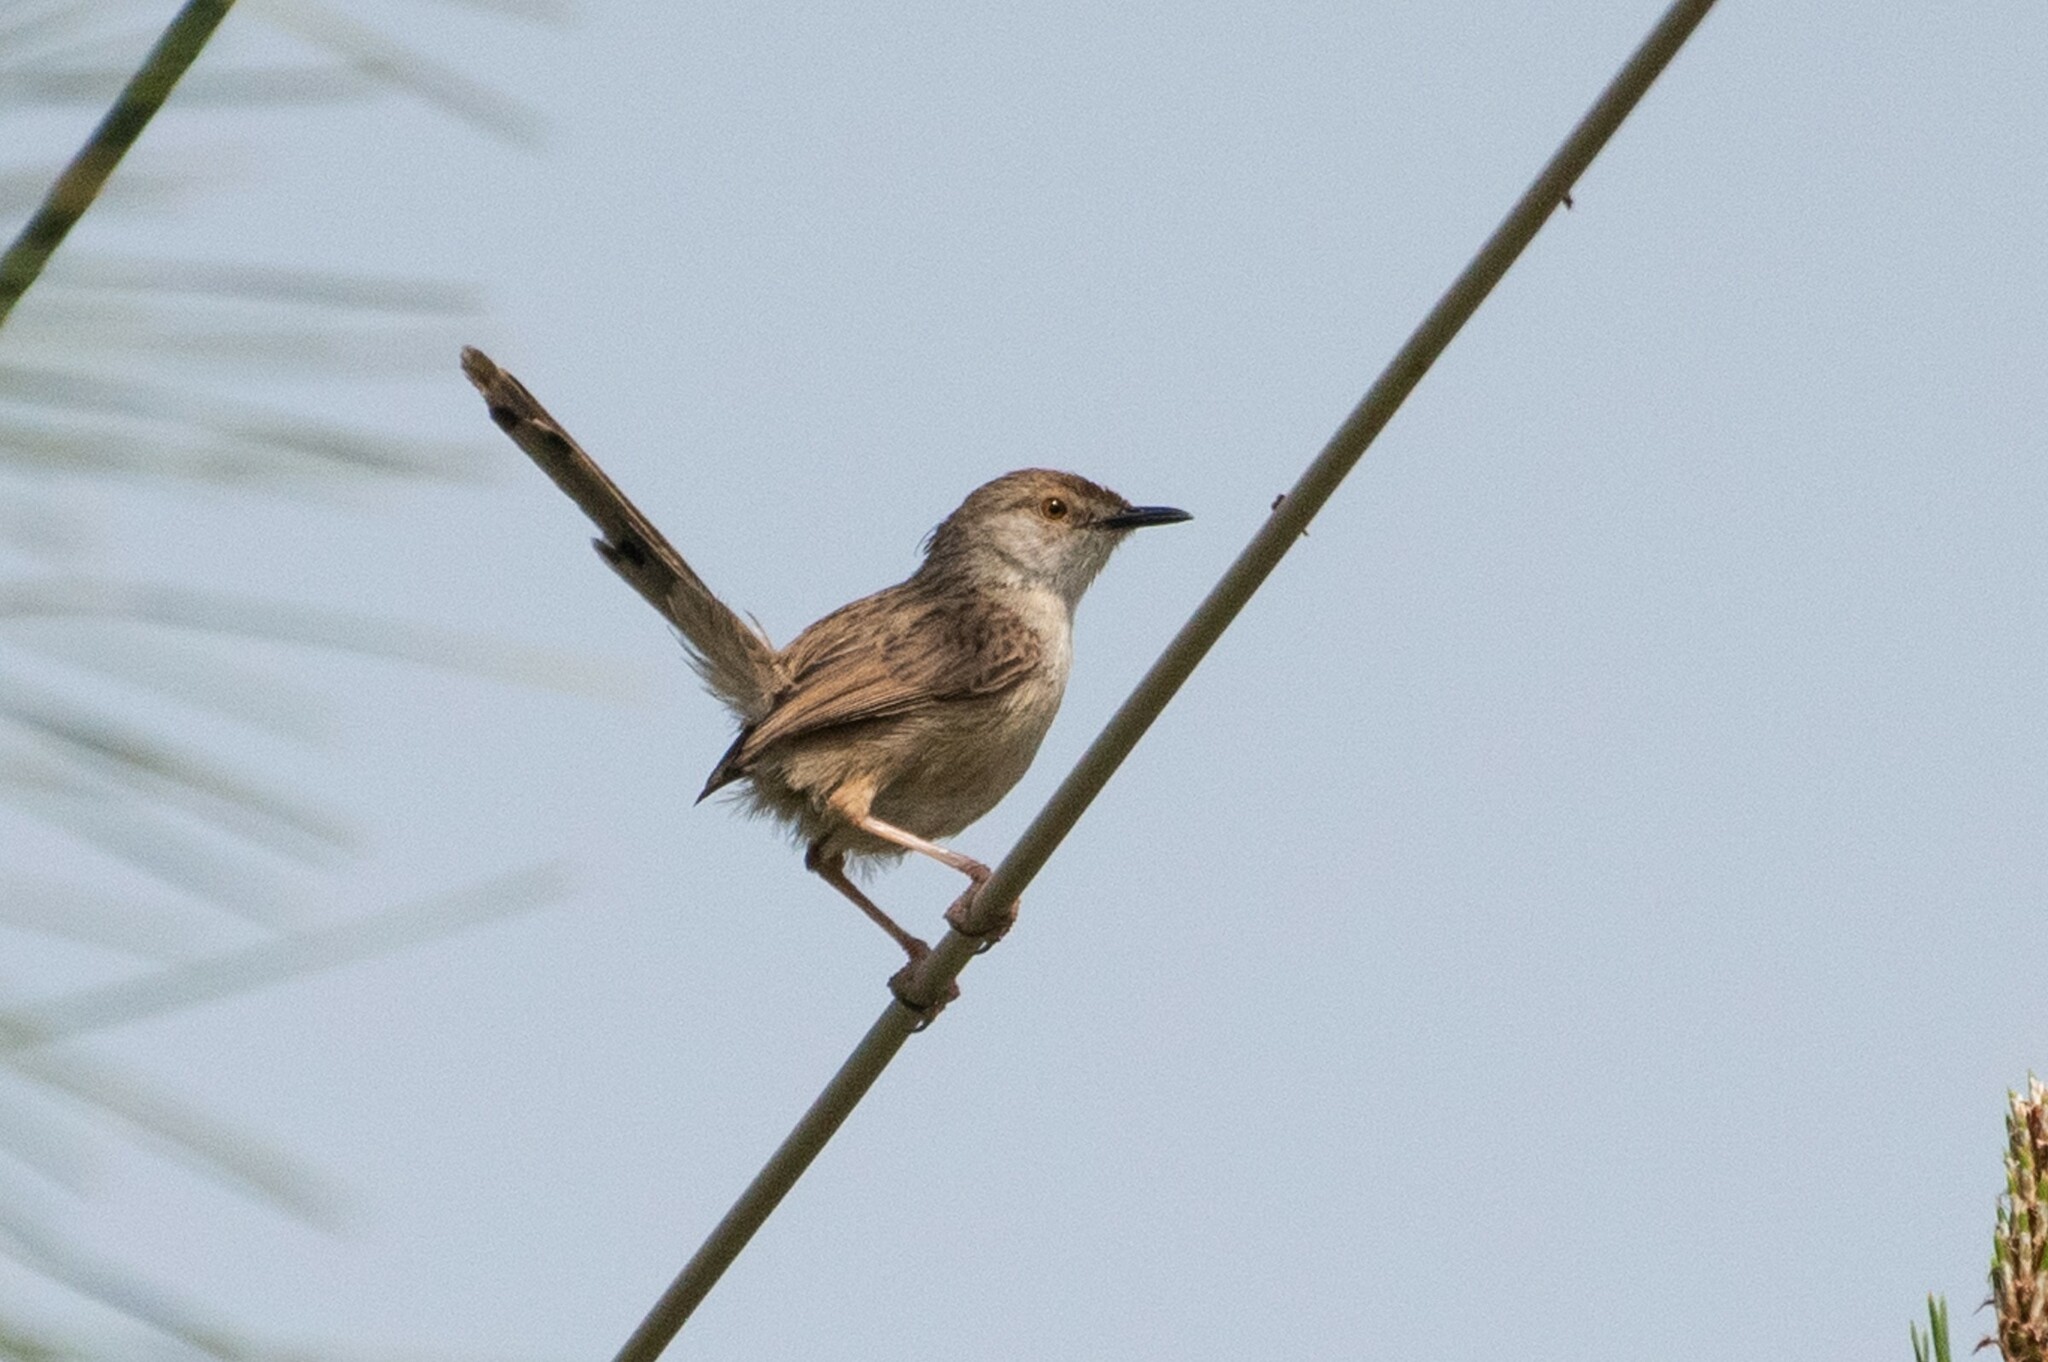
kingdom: Animalia
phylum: Chordata
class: Aves
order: Passeriformes
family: Cisticolidae
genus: Prinia
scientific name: Prinia gracilis
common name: Graceful prinia
